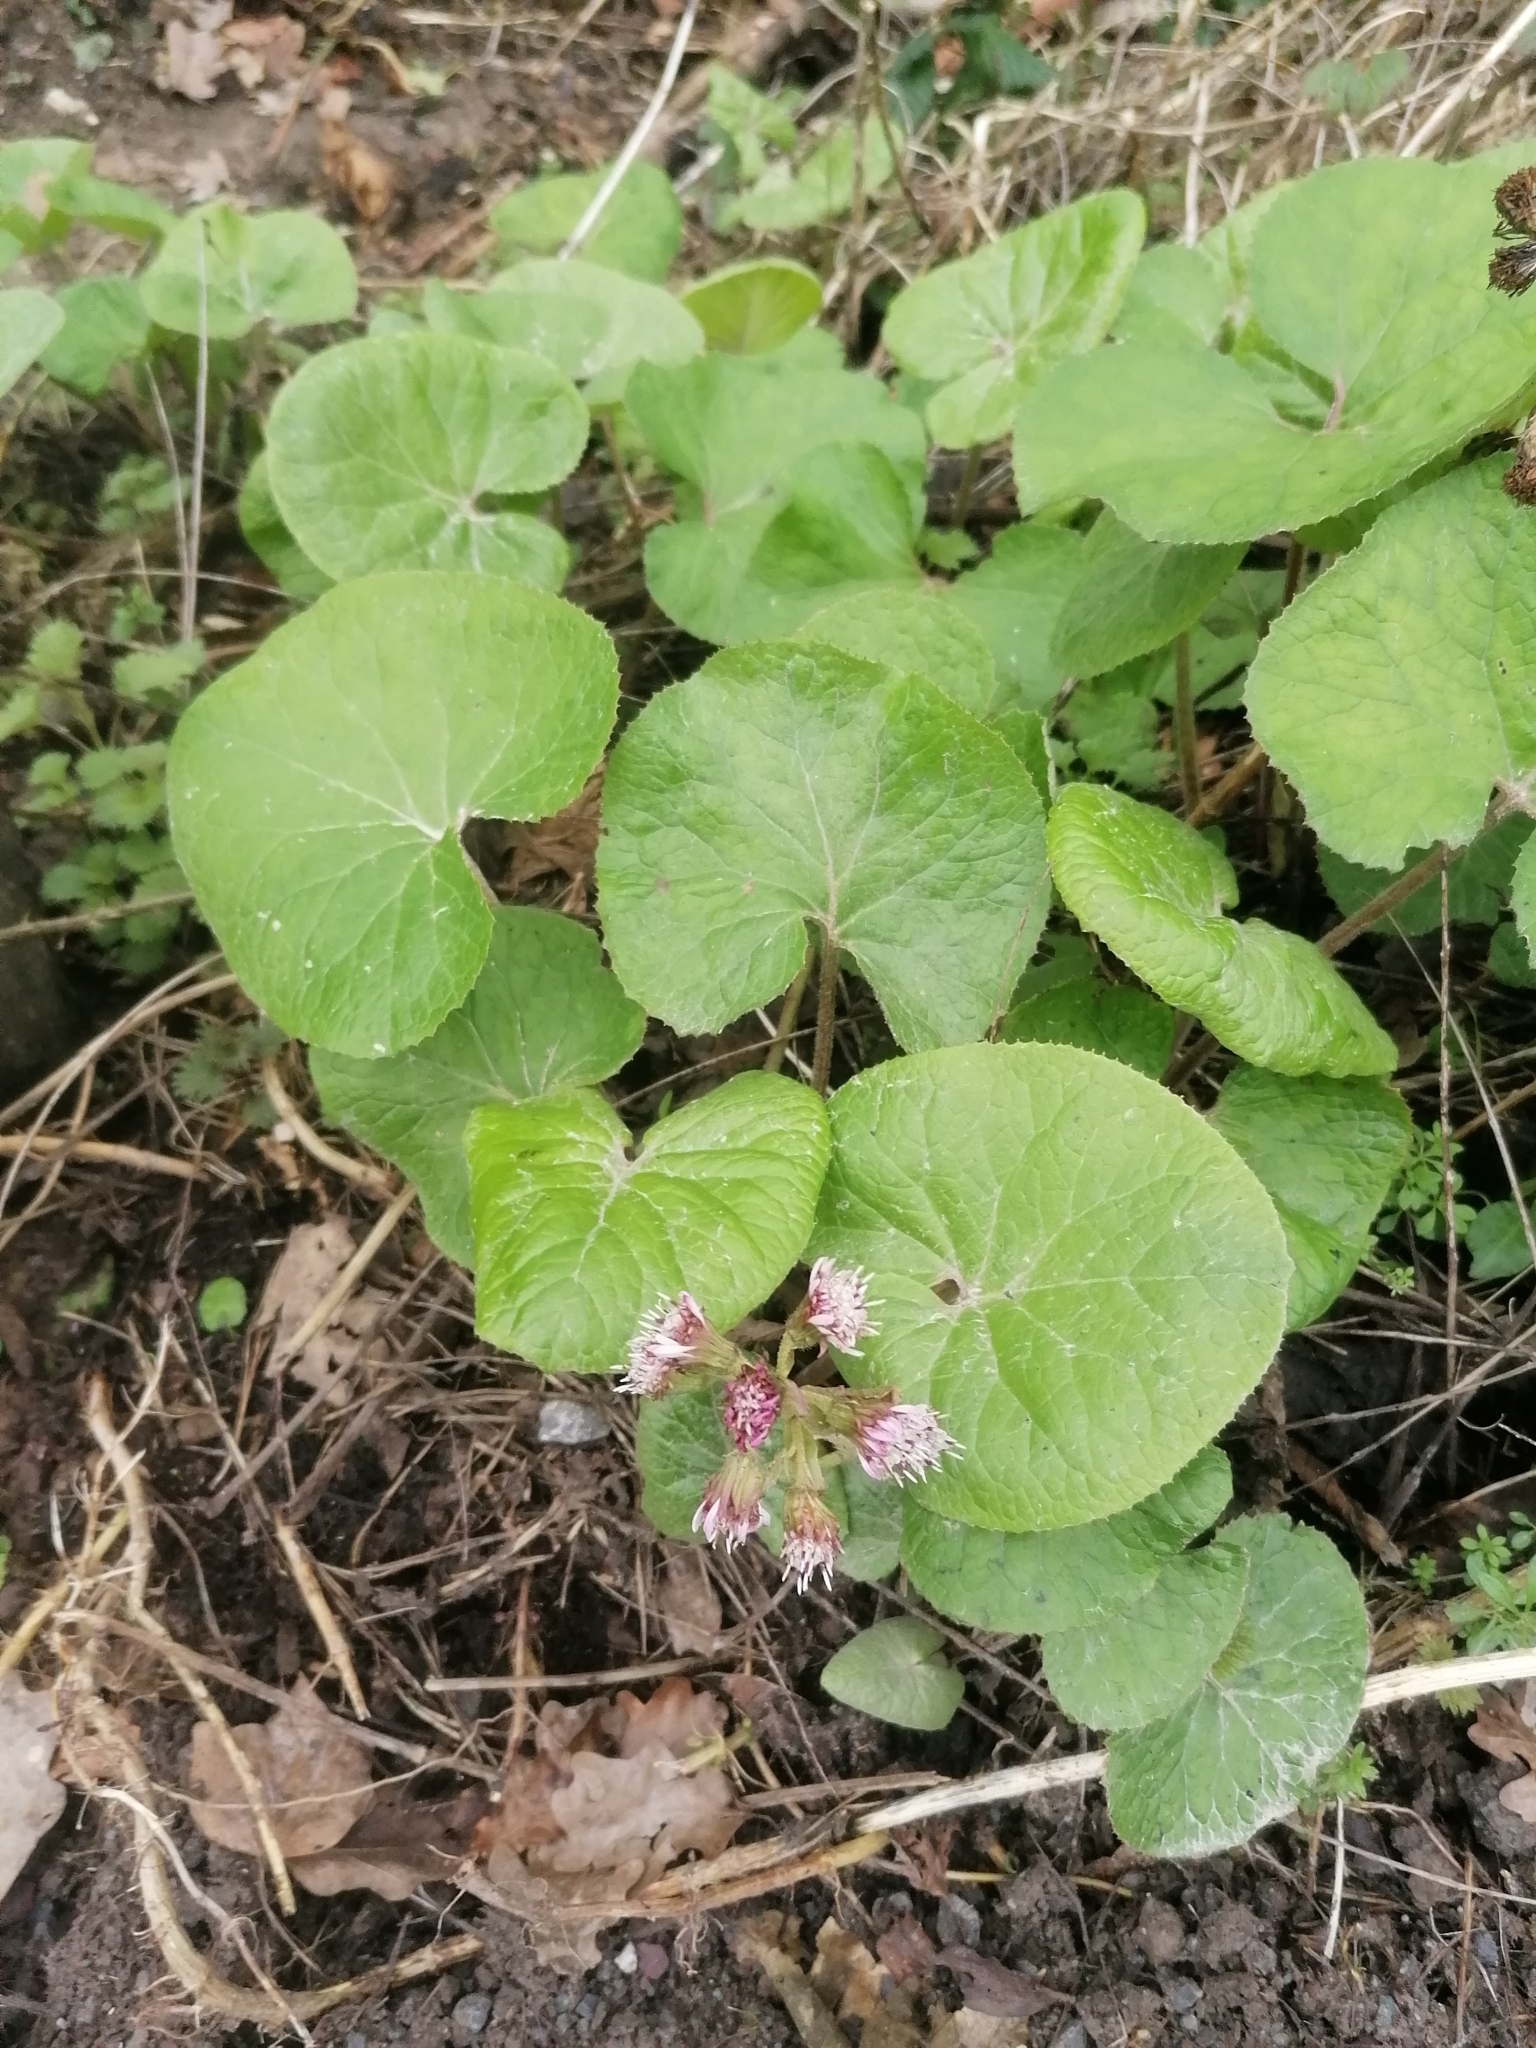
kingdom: Plantae
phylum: Tracheophyta
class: Magnoliopsida
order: Asterales
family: Asteraceae
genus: Petasites
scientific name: Petasites pyrenaicus
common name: Winter heliotrope
